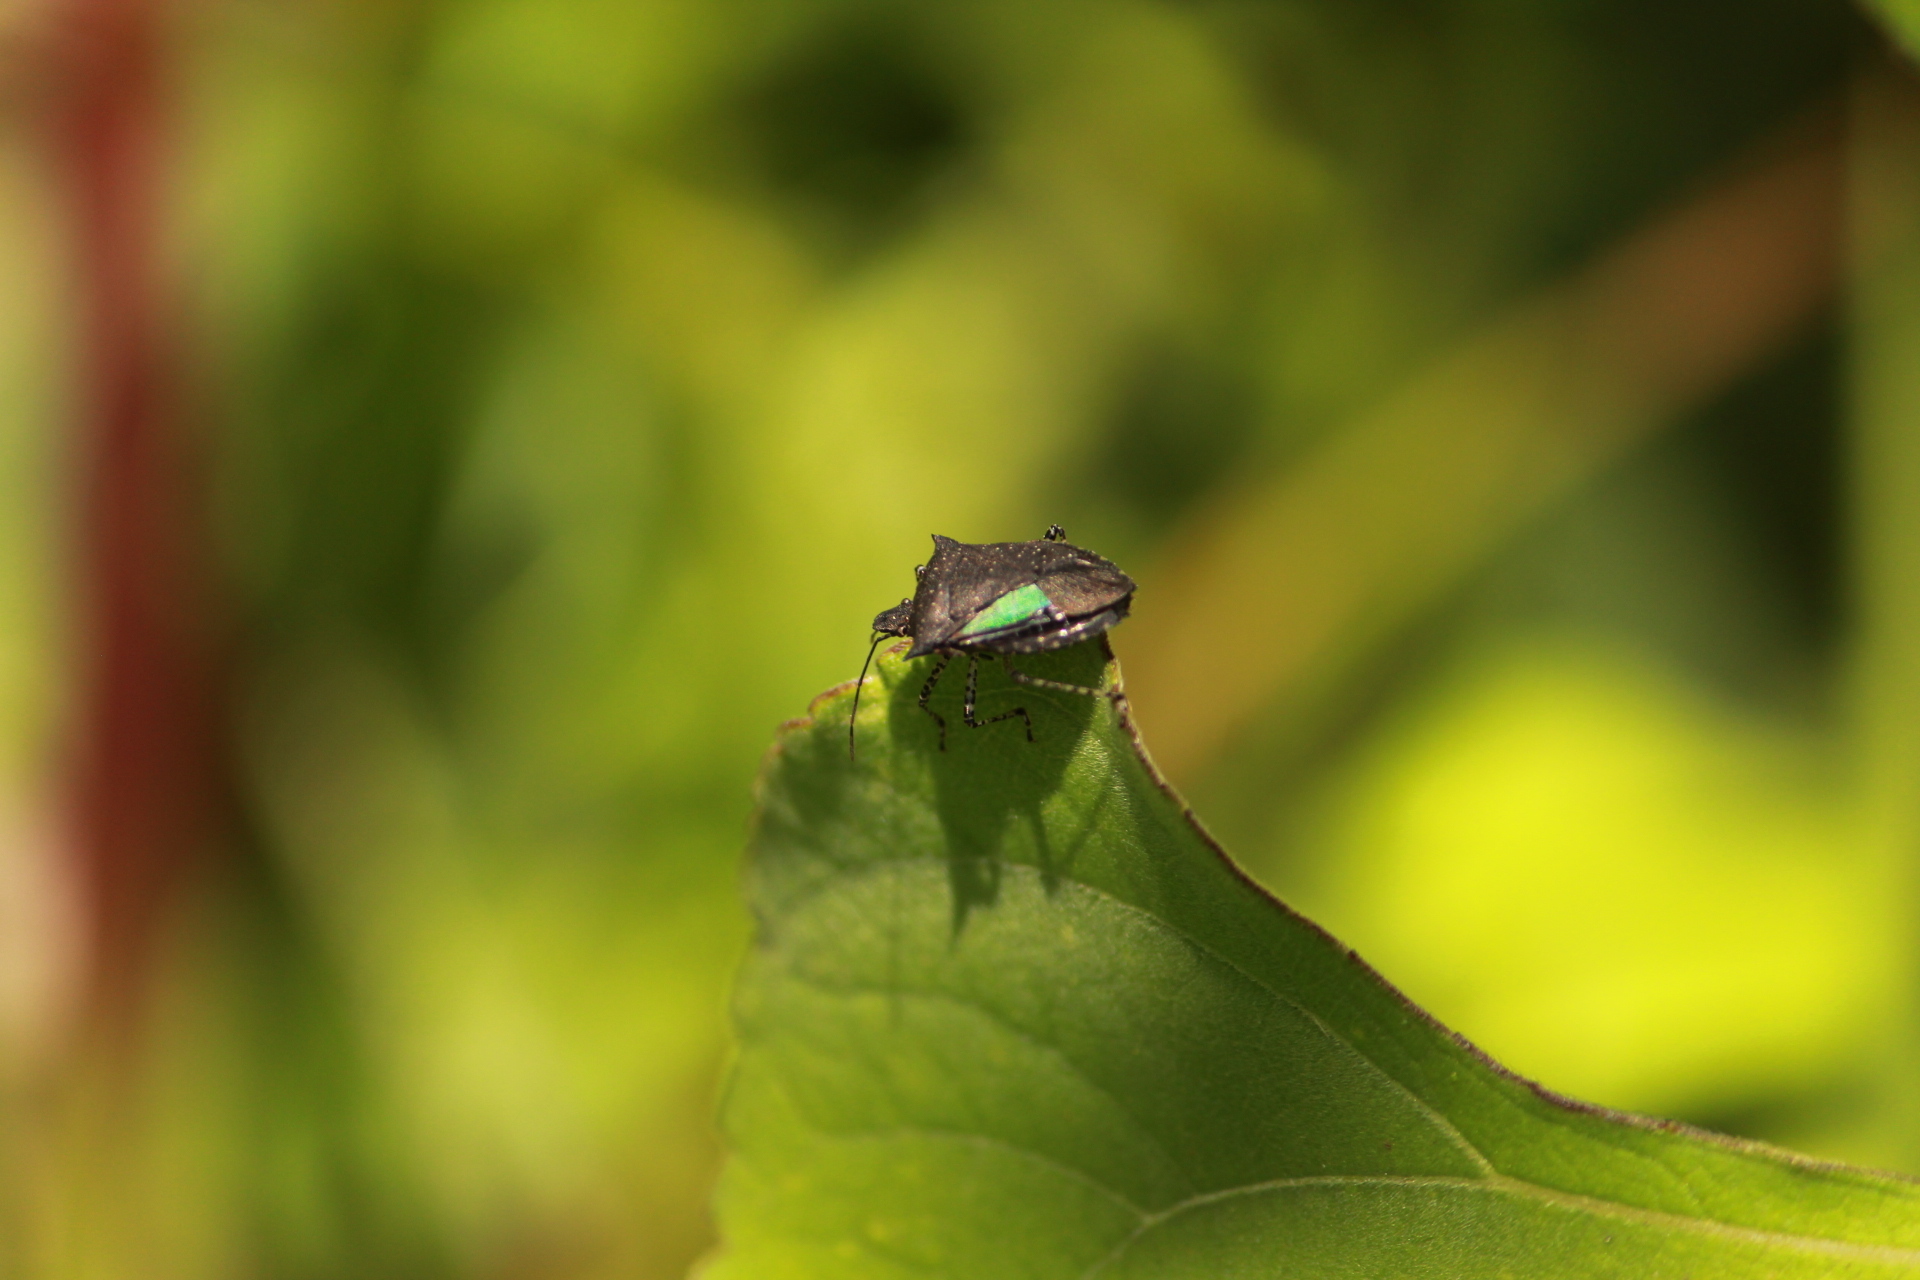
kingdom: Animalia
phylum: Arthropoda
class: Insecta
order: Hemiptera
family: Pentatomidae
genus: Padaeus
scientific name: Padaeus viduus
